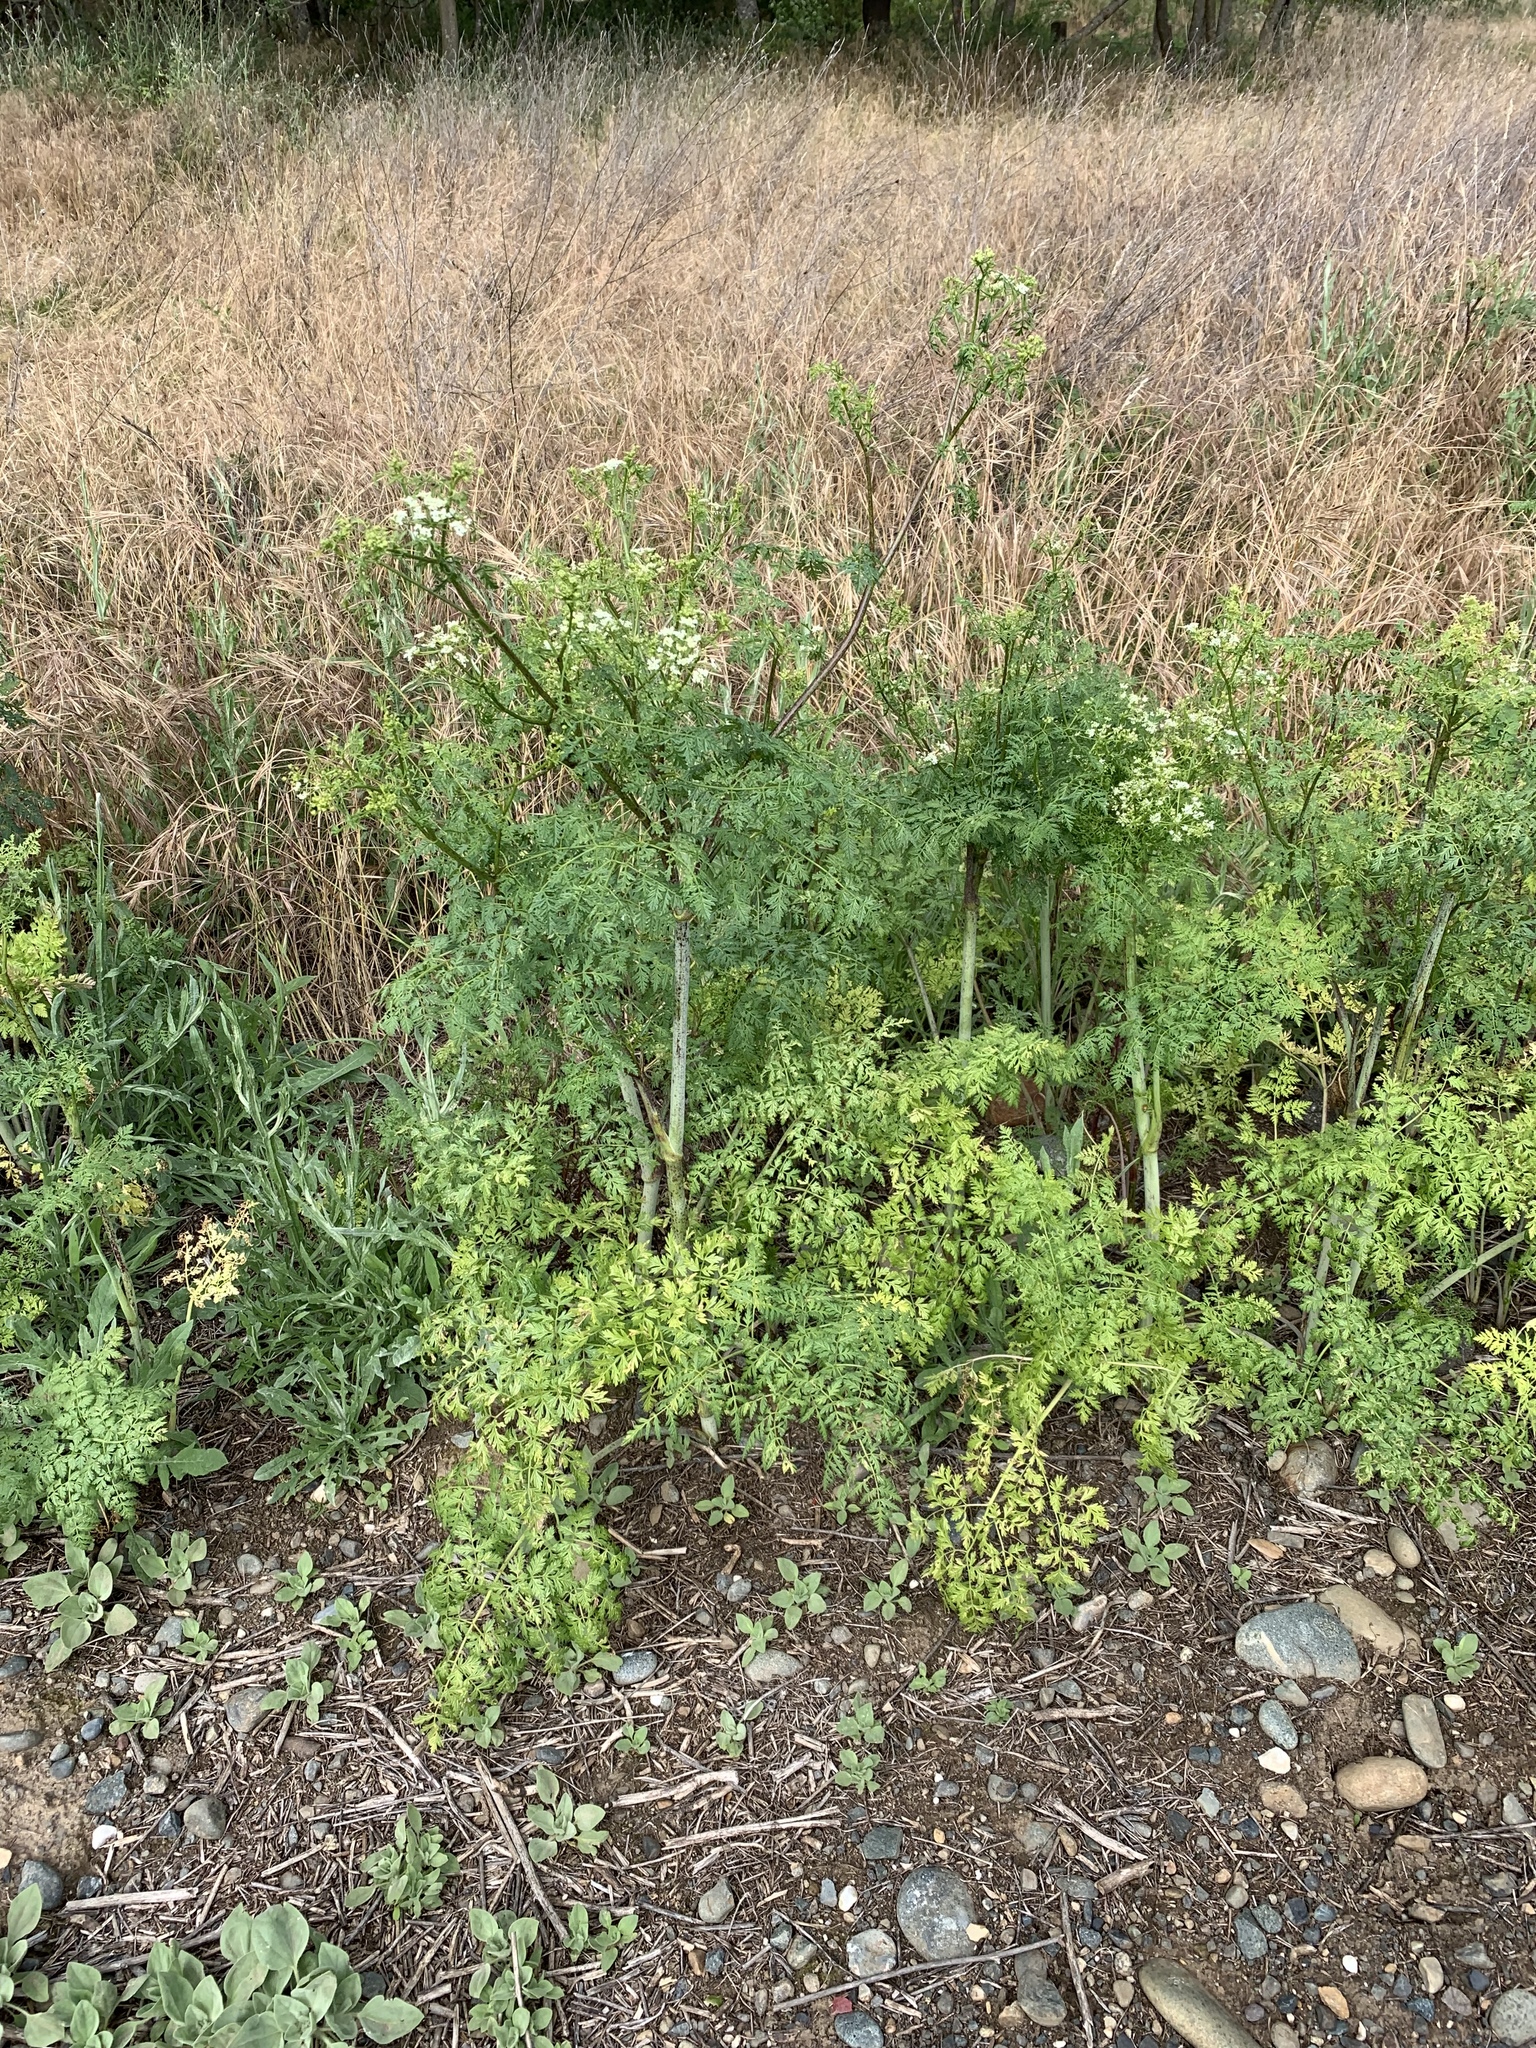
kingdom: Plantae
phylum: Tracheophyta
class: Magnoliopsida
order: Apiales
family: Apiaceae
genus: Conium
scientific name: Conium maculatum
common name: Hemlock
